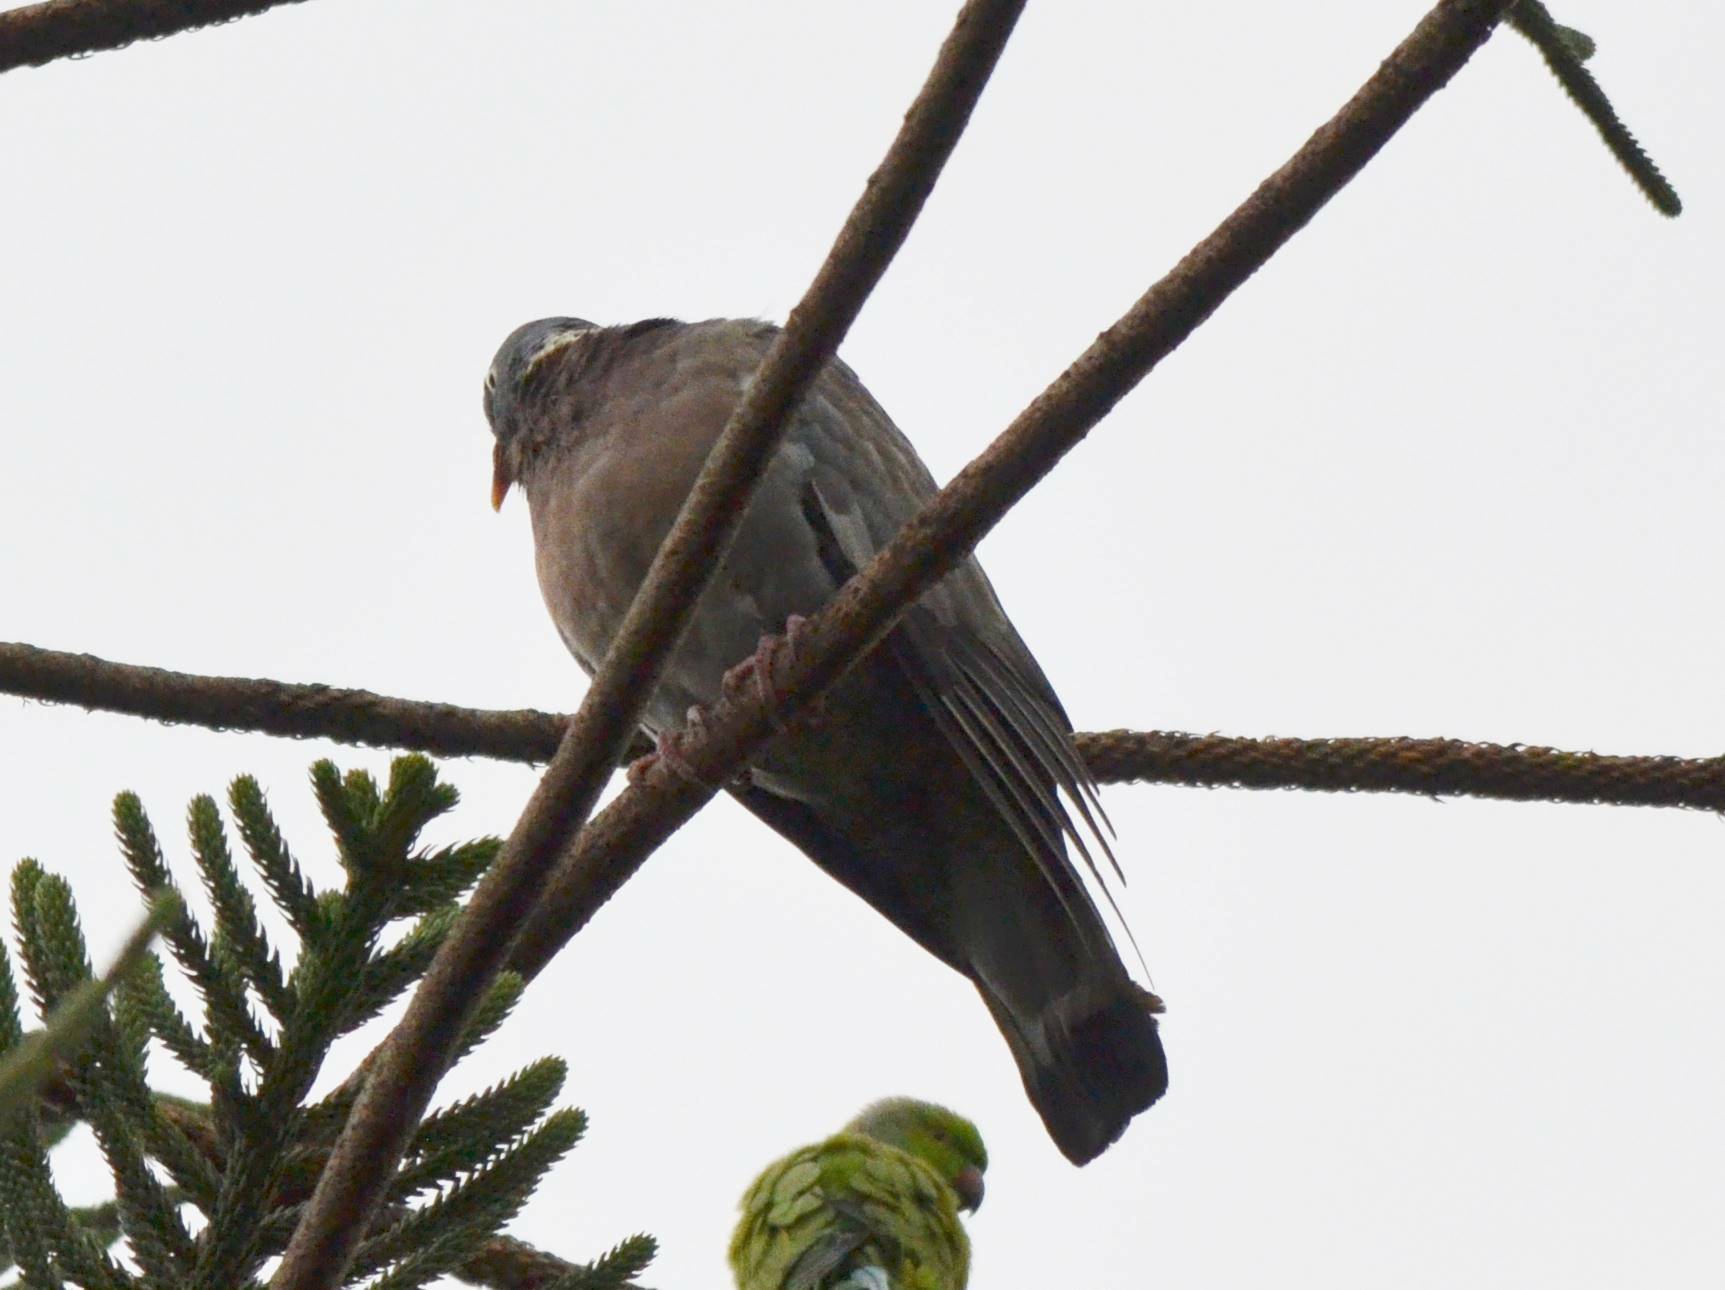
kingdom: Animalia
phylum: Chordata
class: Aves
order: Columbiformes
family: Columbidae
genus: Columba
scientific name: Columba palumbus
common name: Common wood pigeon
